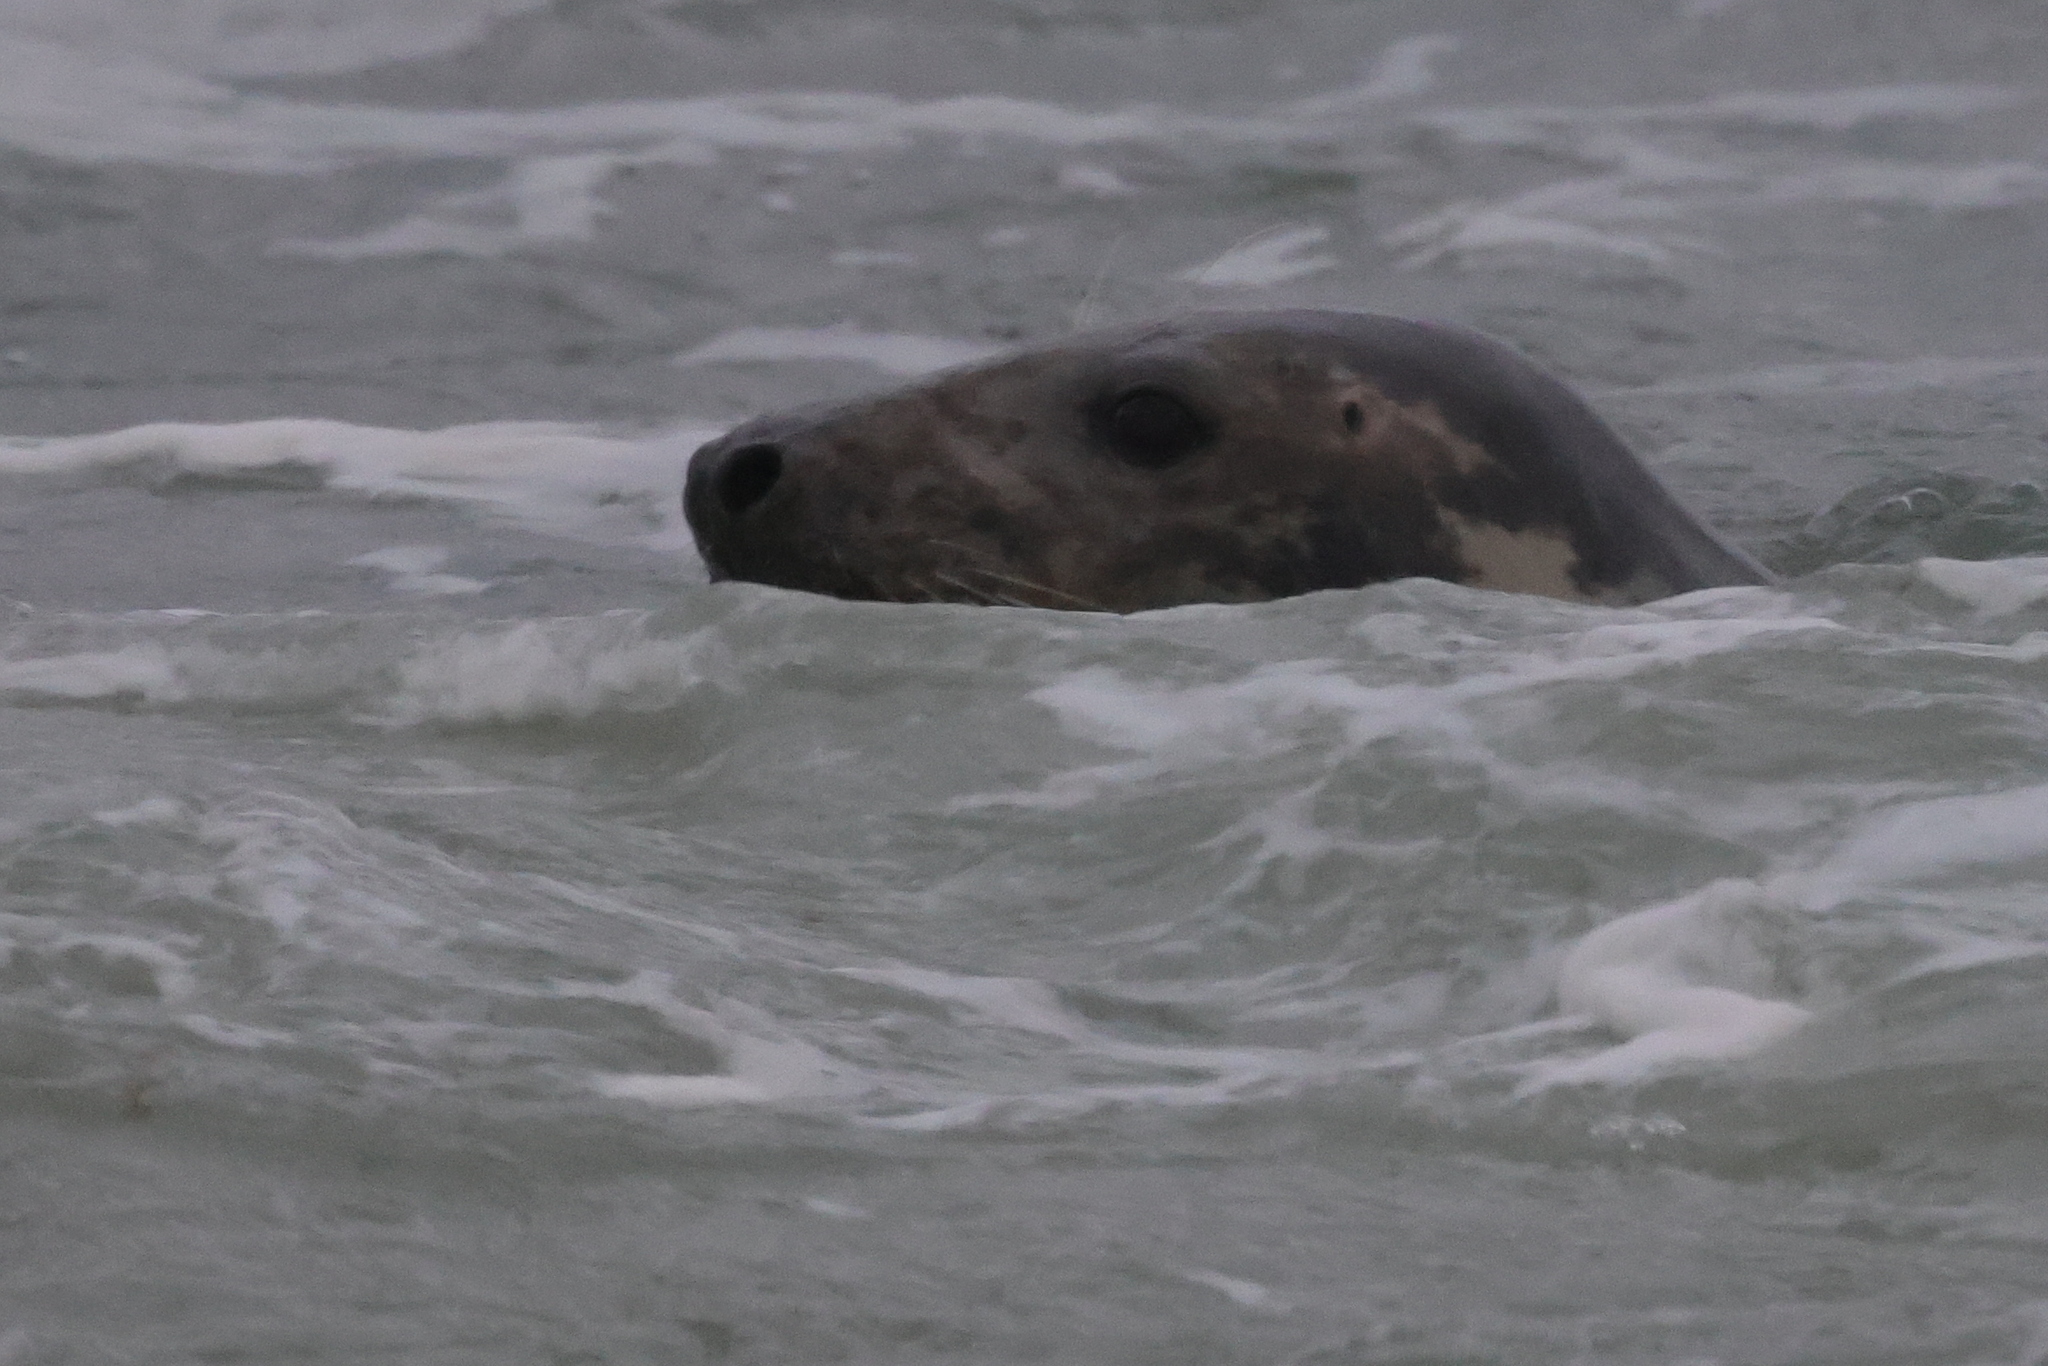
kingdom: Animalia
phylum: Chordata
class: Mammalia
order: Carnivora
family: Phocidae
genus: Halichoerus
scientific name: Halichoerus grypus
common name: Grey seal
